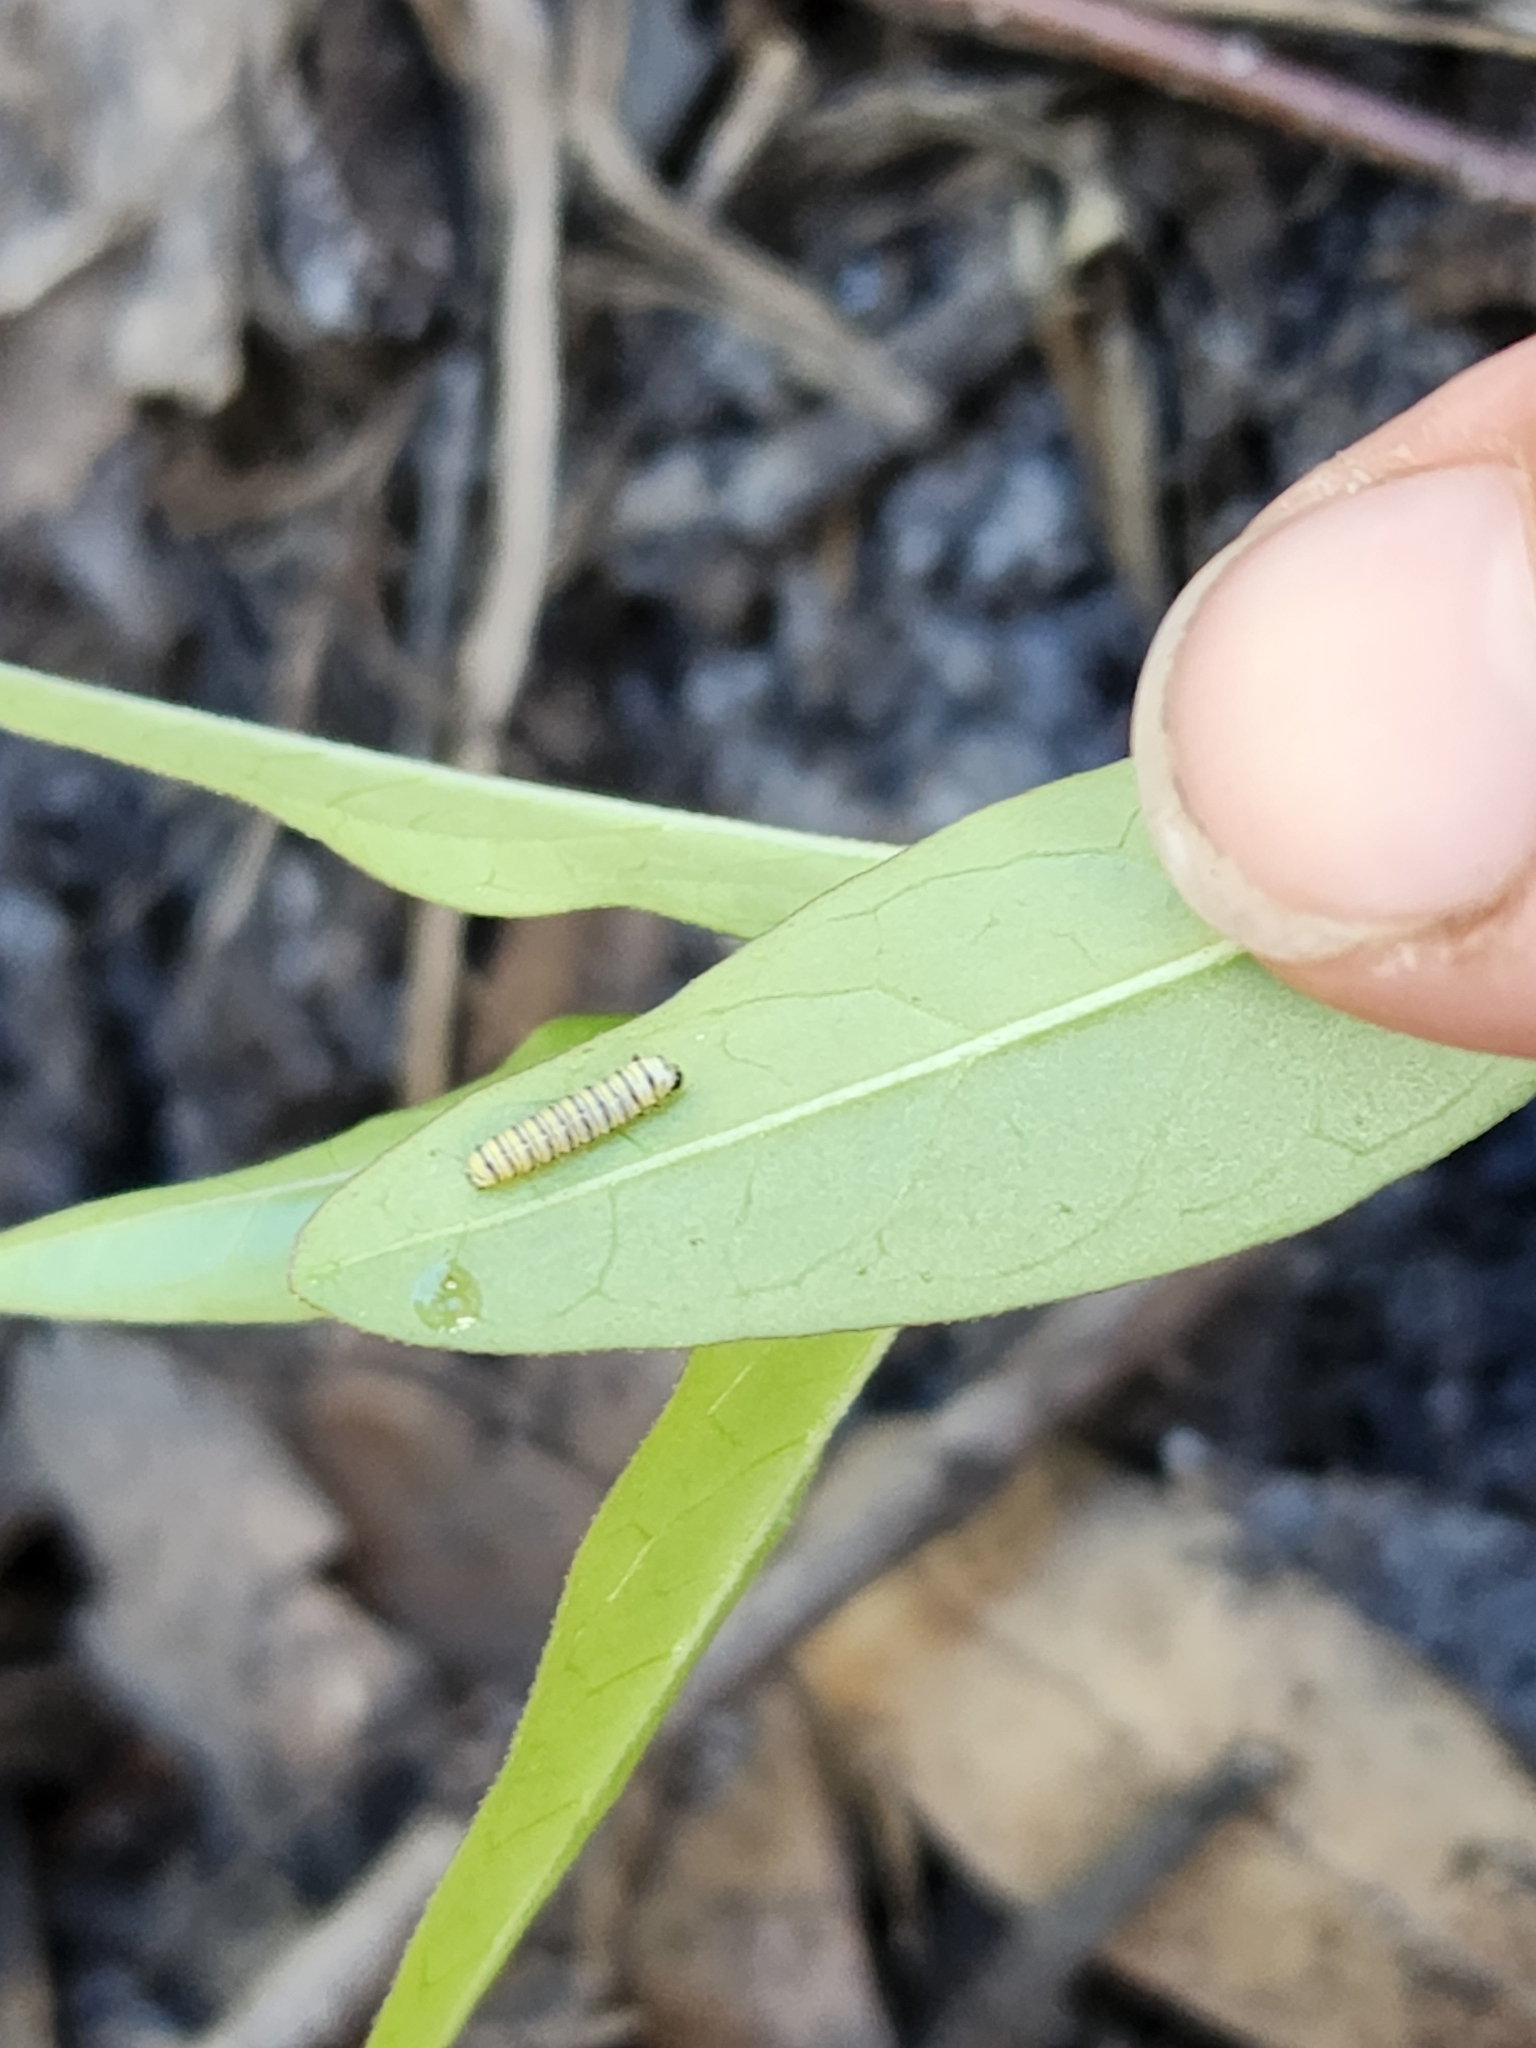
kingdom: Animalia
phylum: Arthropoda
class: Insecta
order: Lepidoptera
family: Nymphalidae
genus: Danaus
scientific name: Danaus plexippus
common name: Monarch
